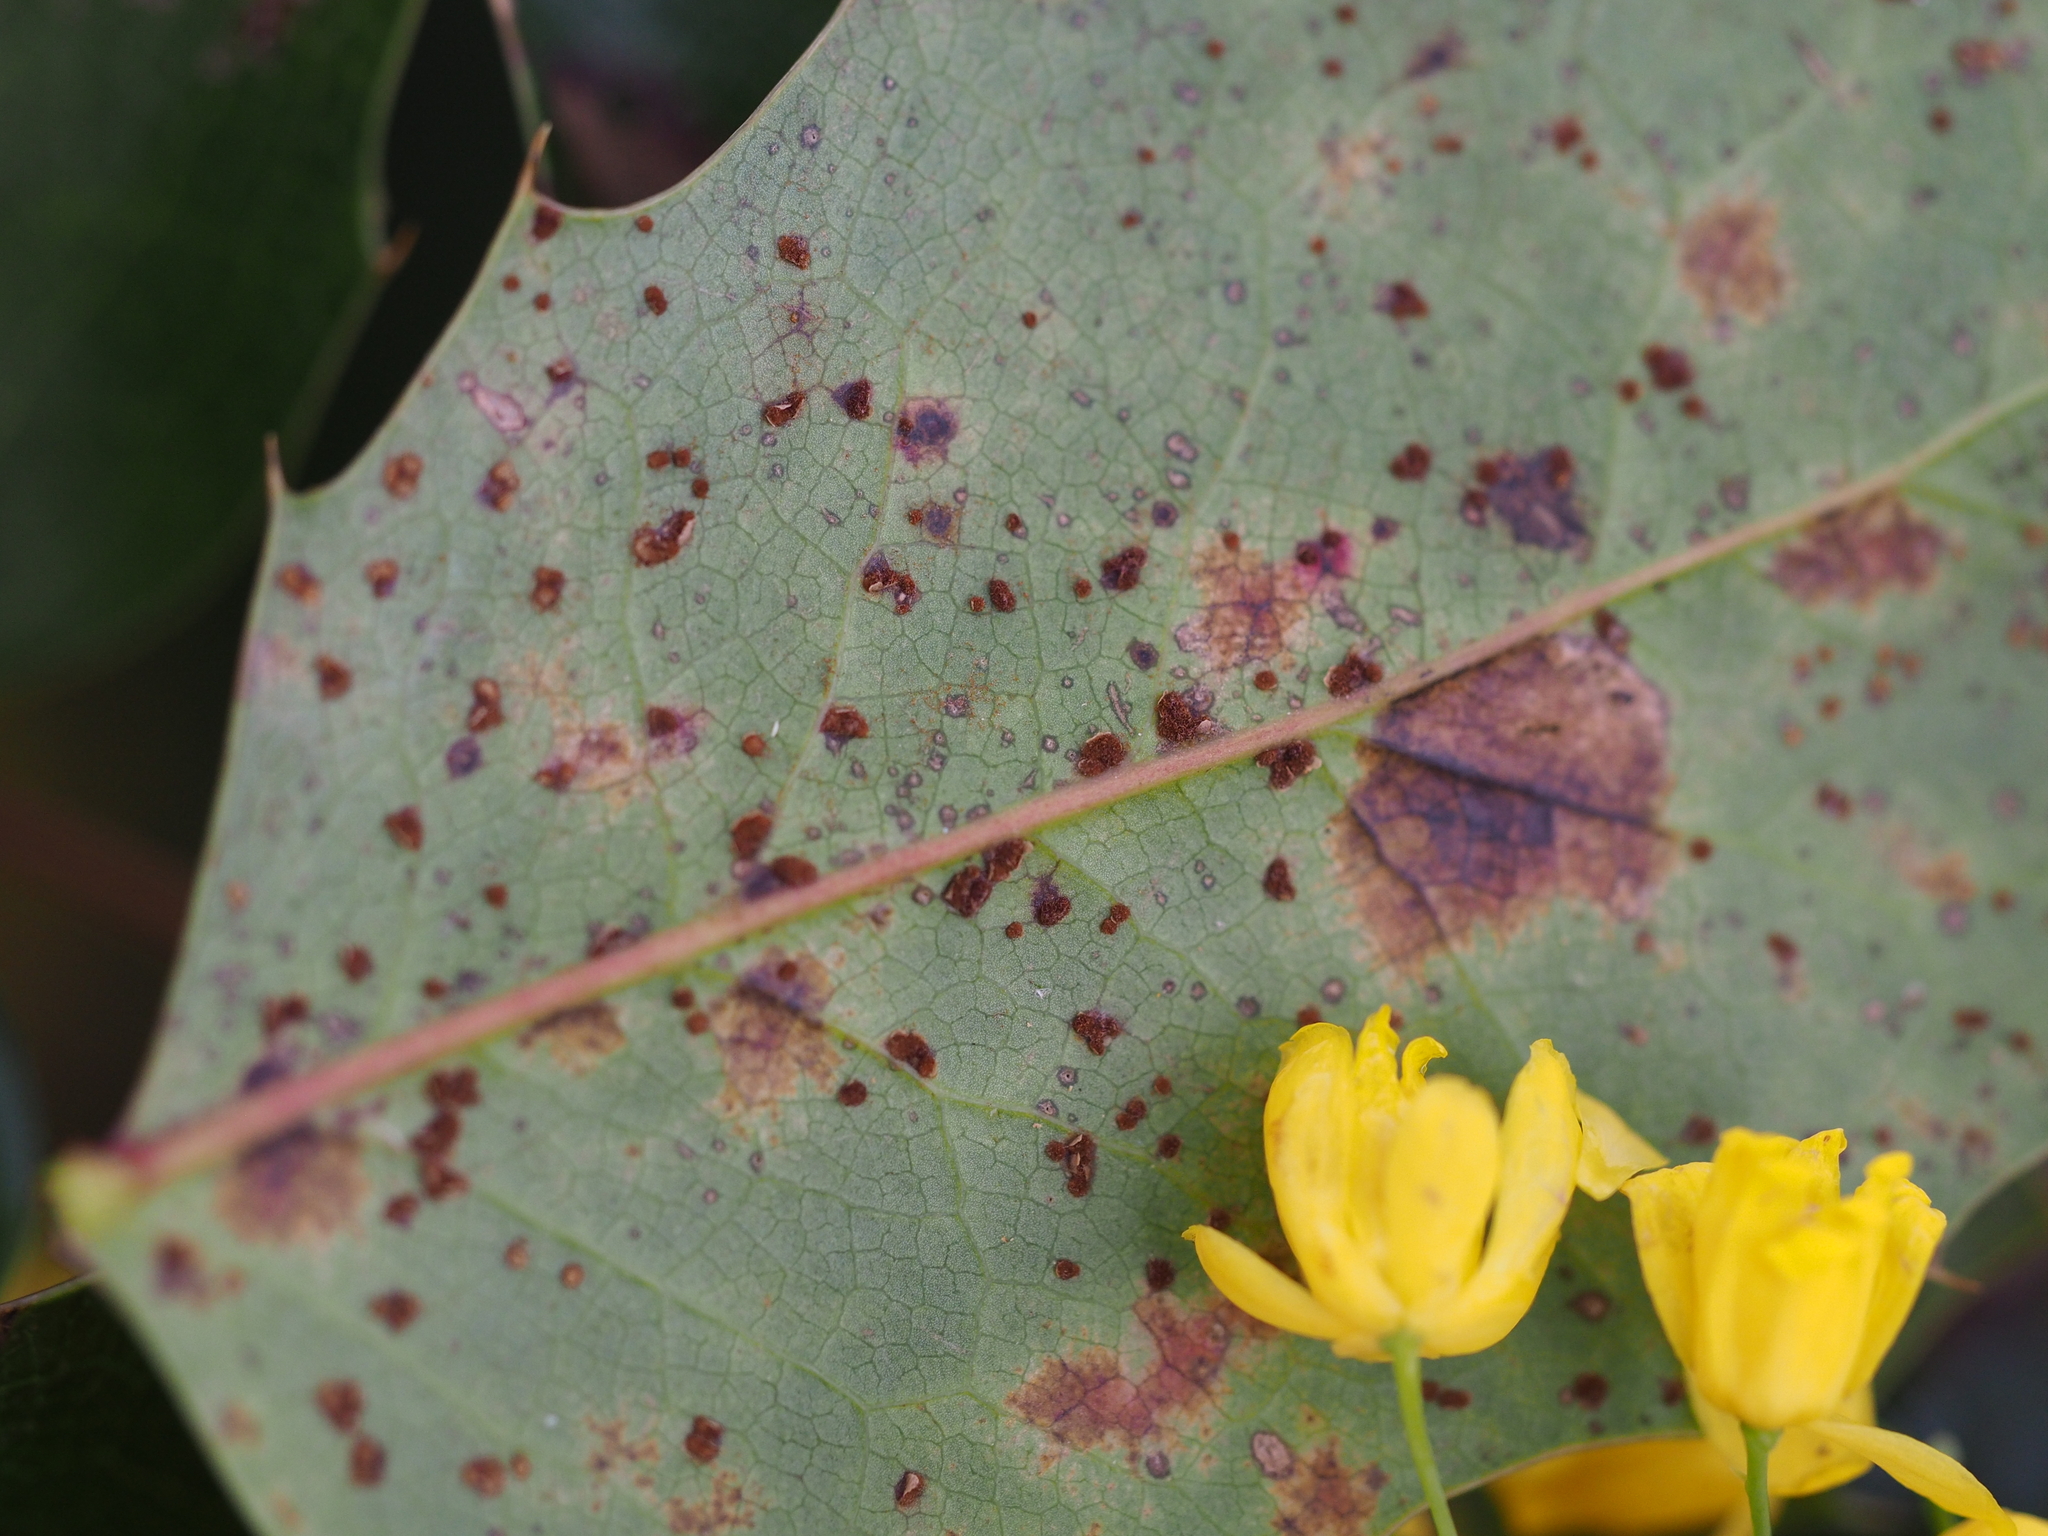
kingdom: Fungi
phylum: Basidiomycota
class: Pucciniomycetes
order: Pucciniales
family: Pucciniaceae
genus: Cumminsiella
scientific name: Cumminsiella mirabilissima
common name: Mahonia rust
